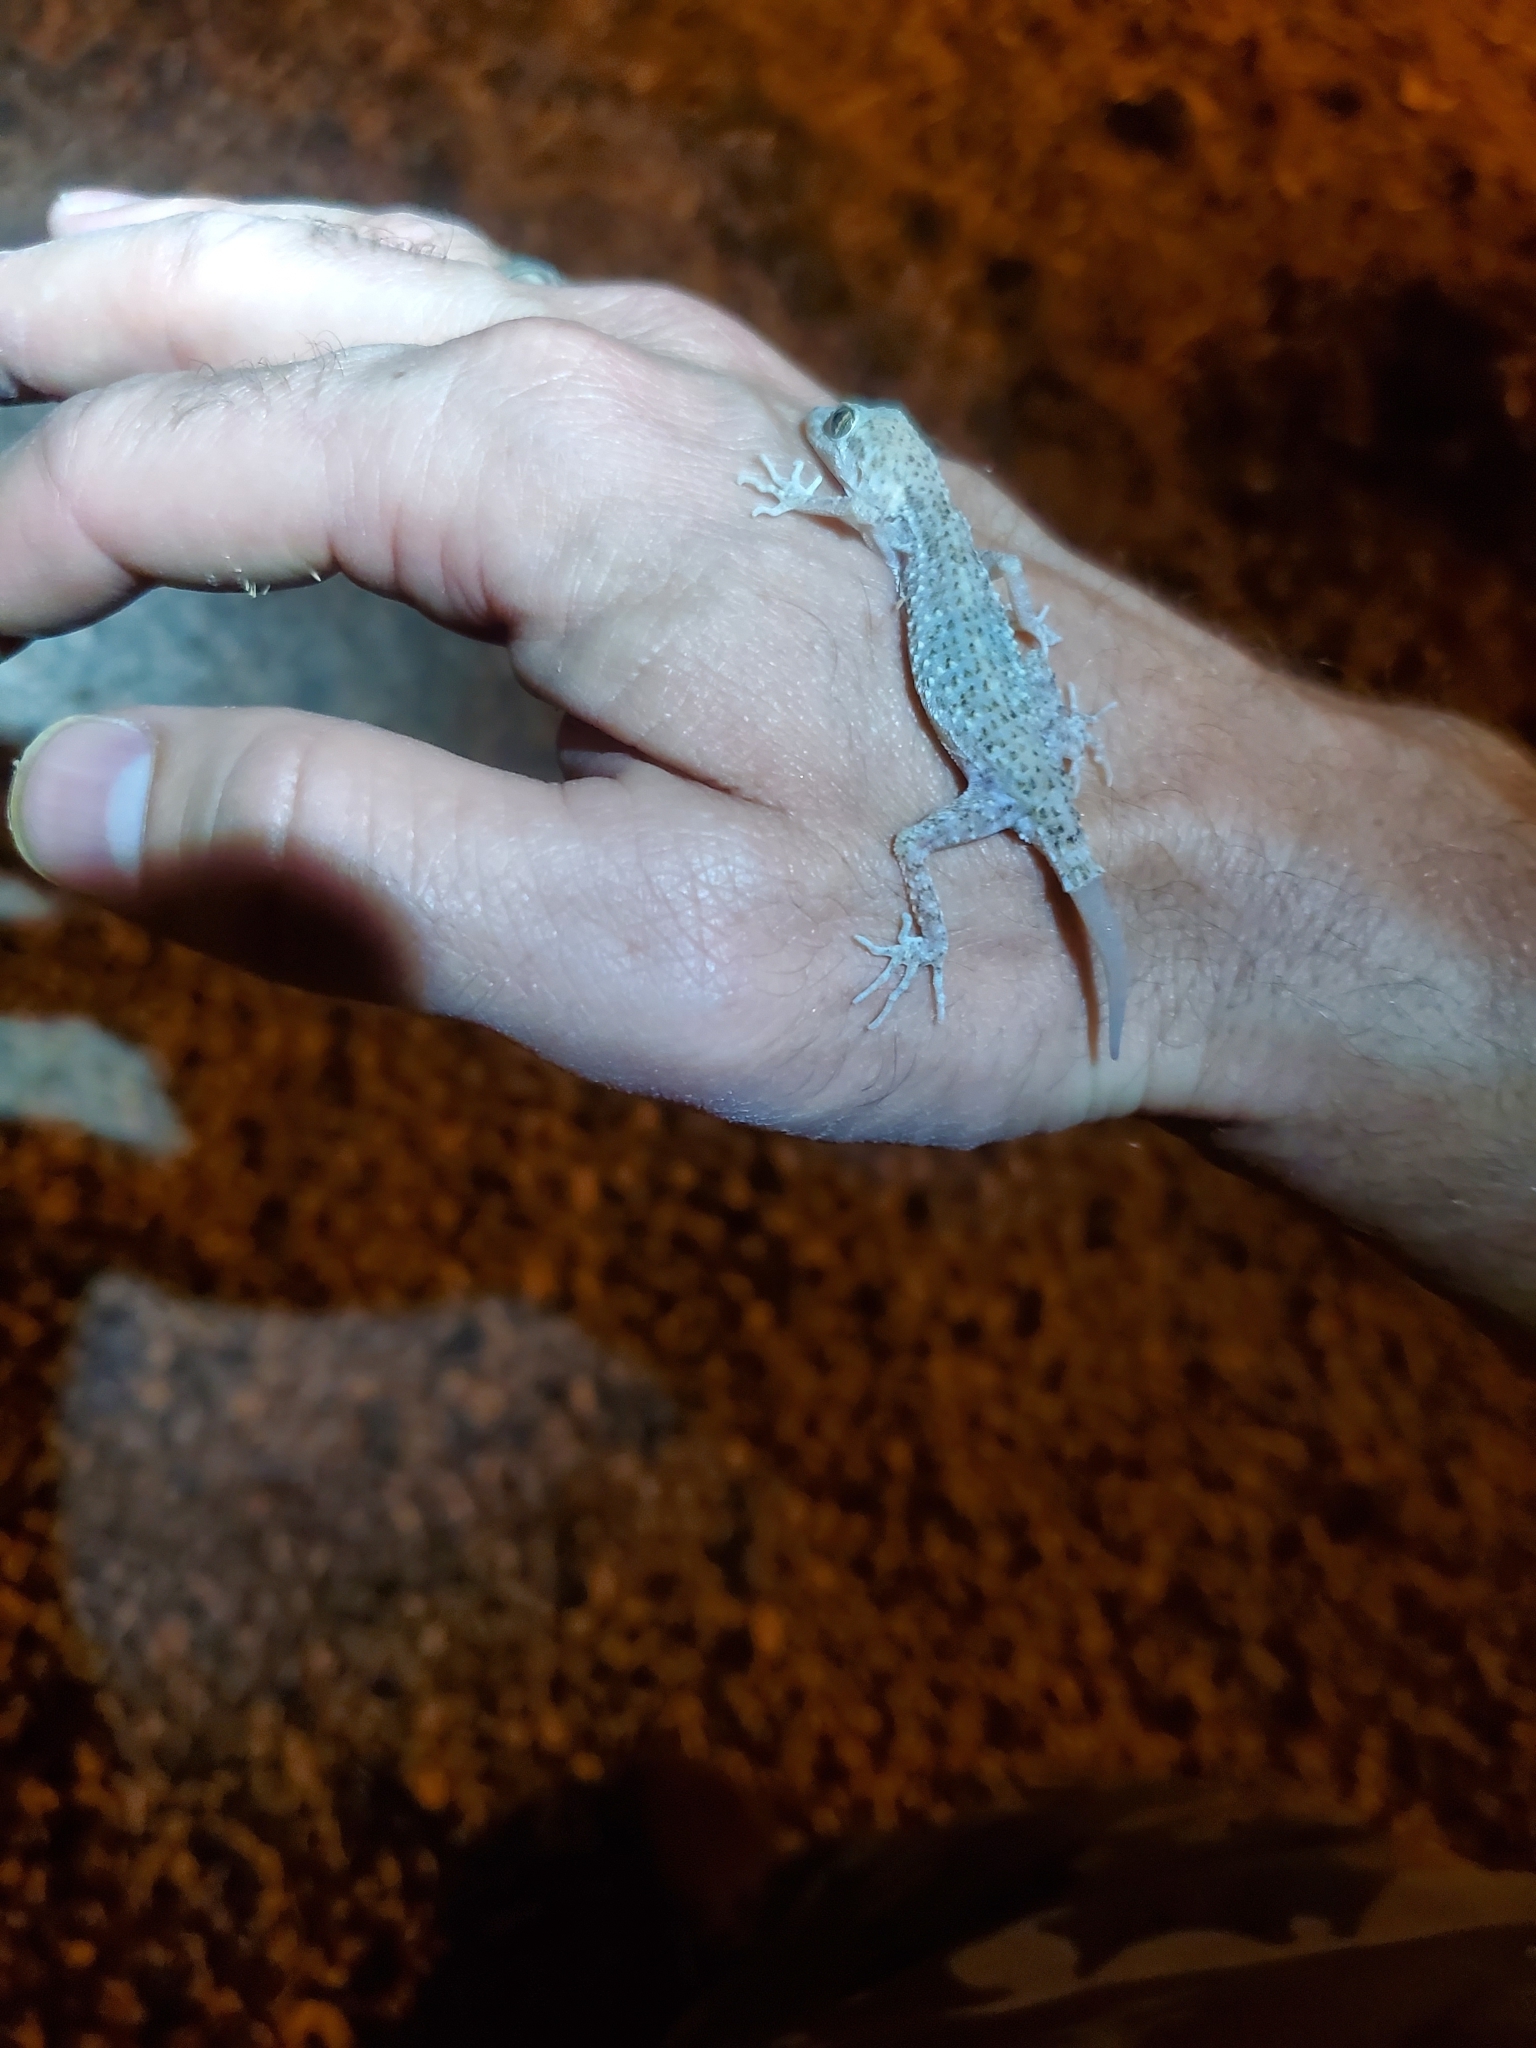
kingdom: Animalia
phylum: Chordata
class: Squamata
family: Gekkonidae
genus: Cyrtopodion
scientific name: Cyrtopodion scabrum
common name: Rough-tailed gecko
